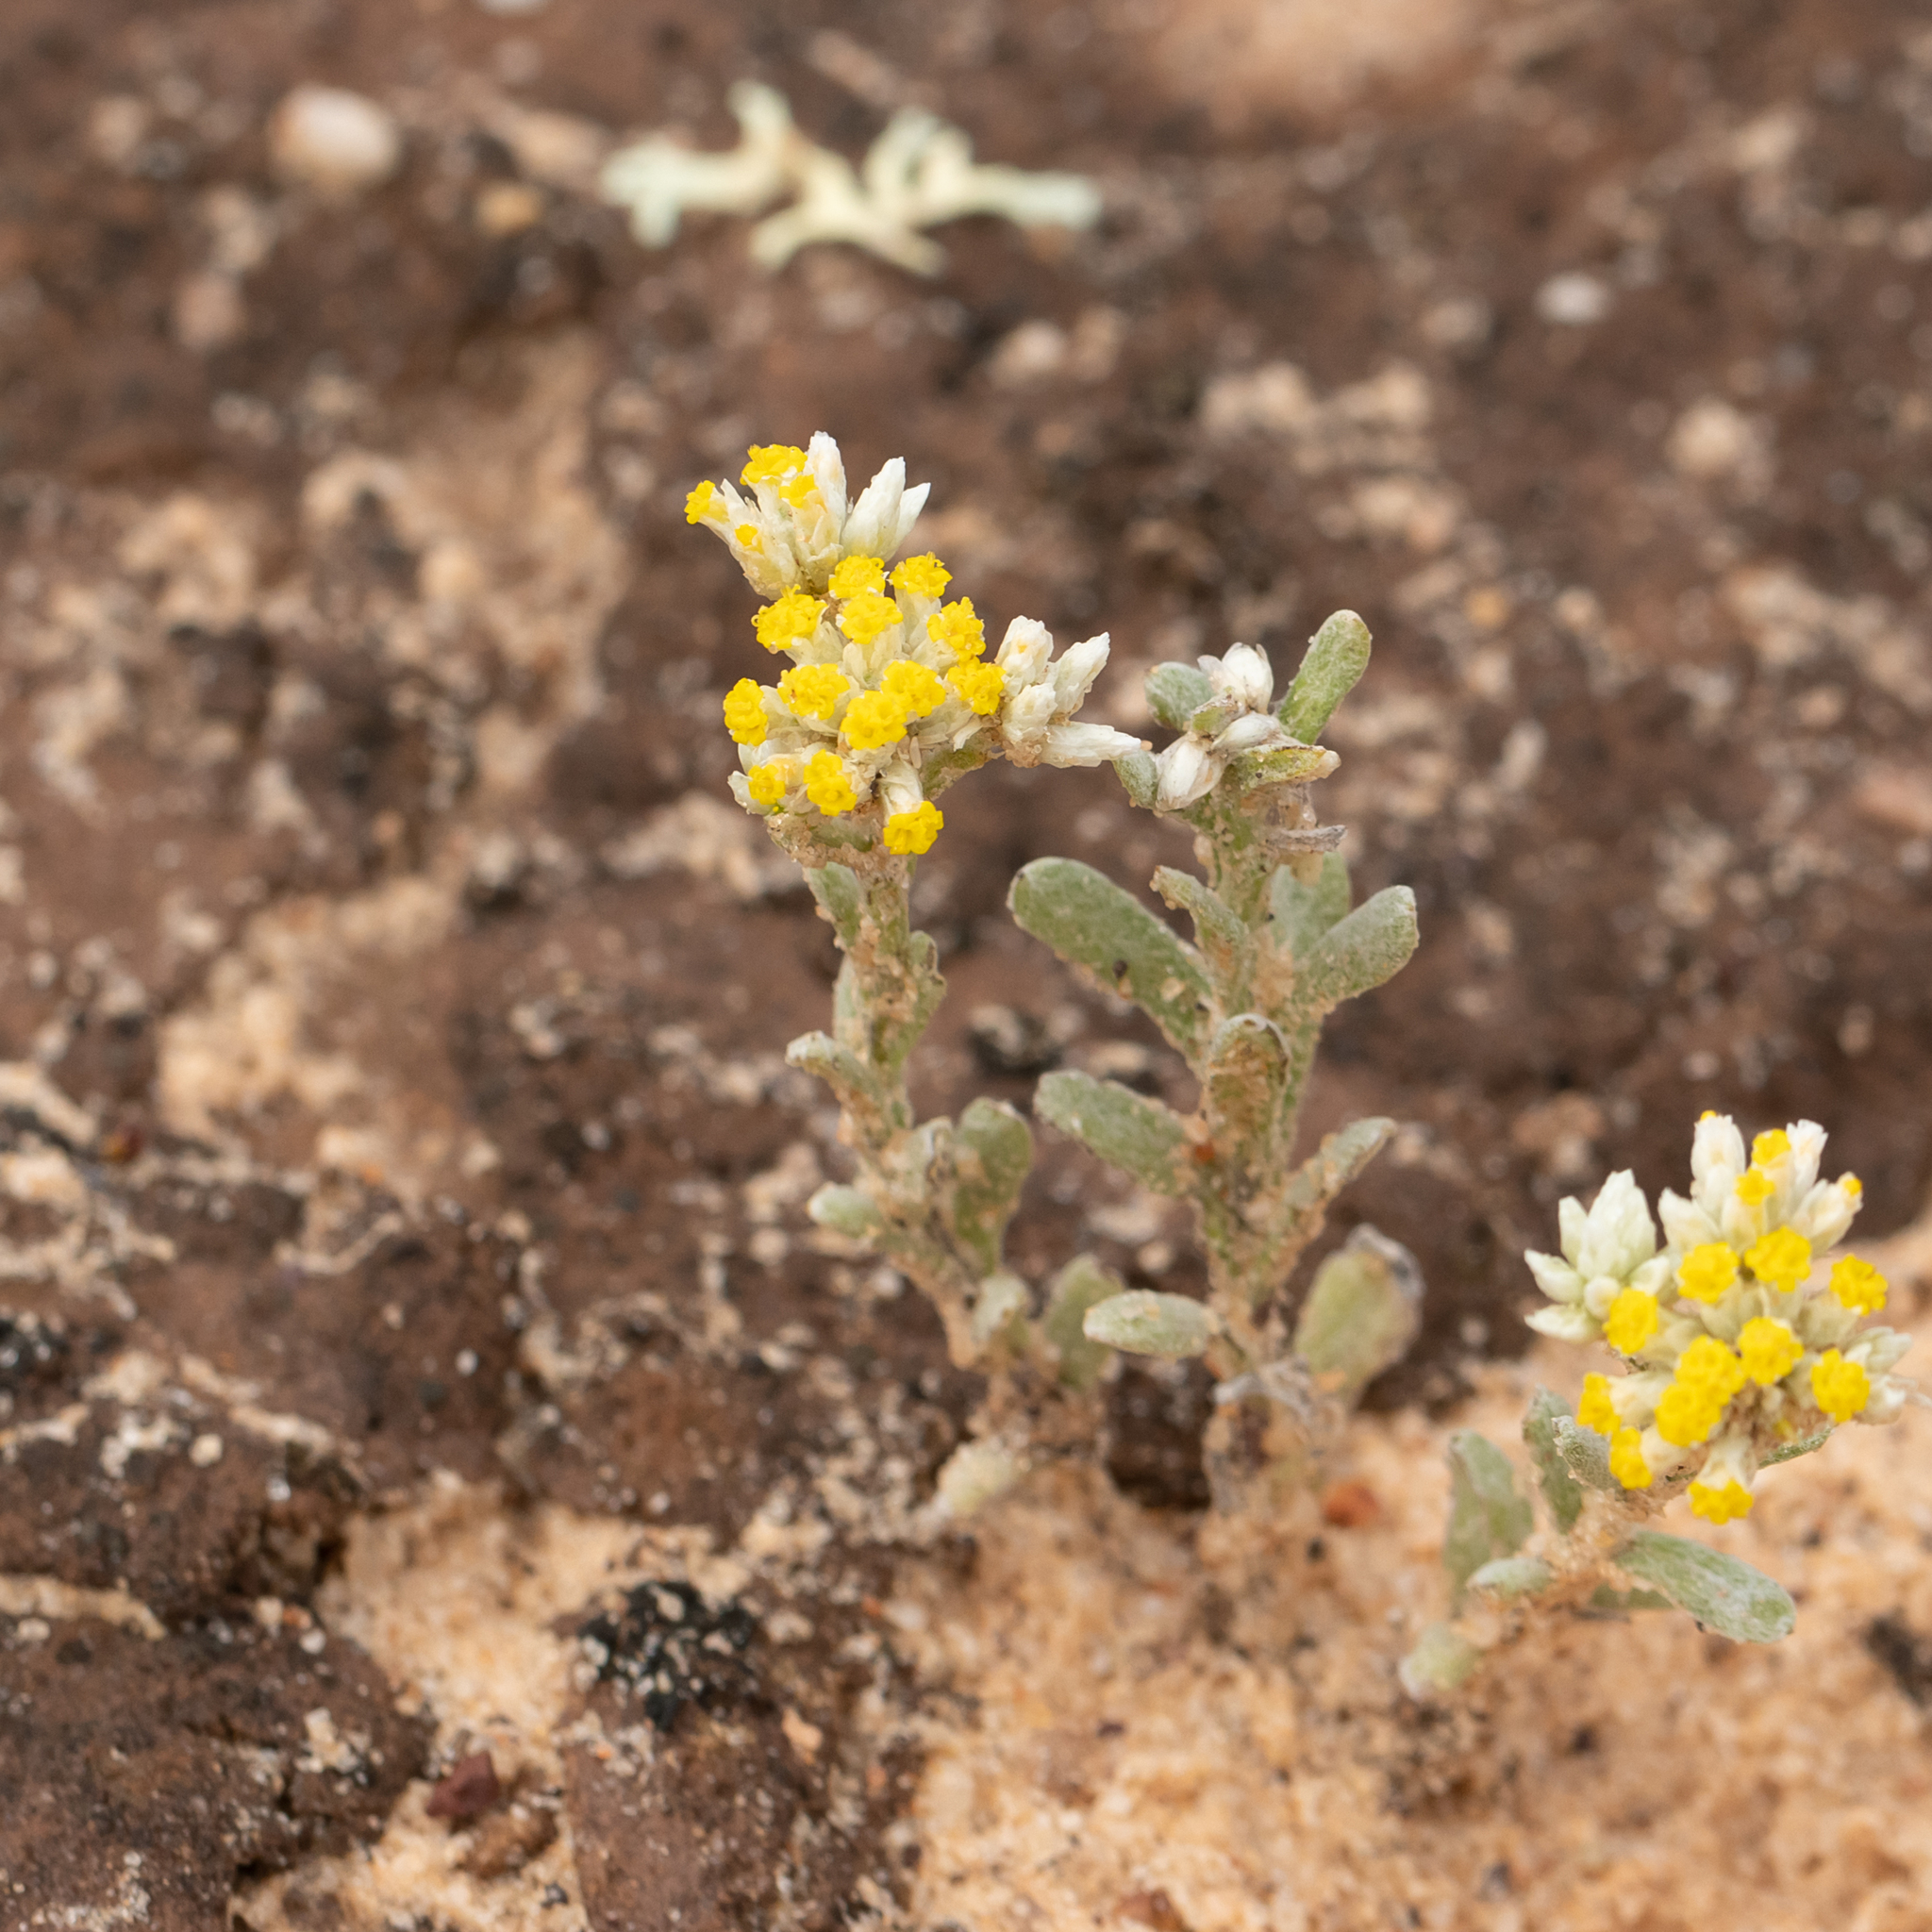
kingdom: Plantae
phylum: Tracheophyta
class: Magnoliopsida
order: Asterales
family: Asteraceae
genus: Rhodanthe
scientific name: Rhodanthe moschata
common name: Musk sunray
